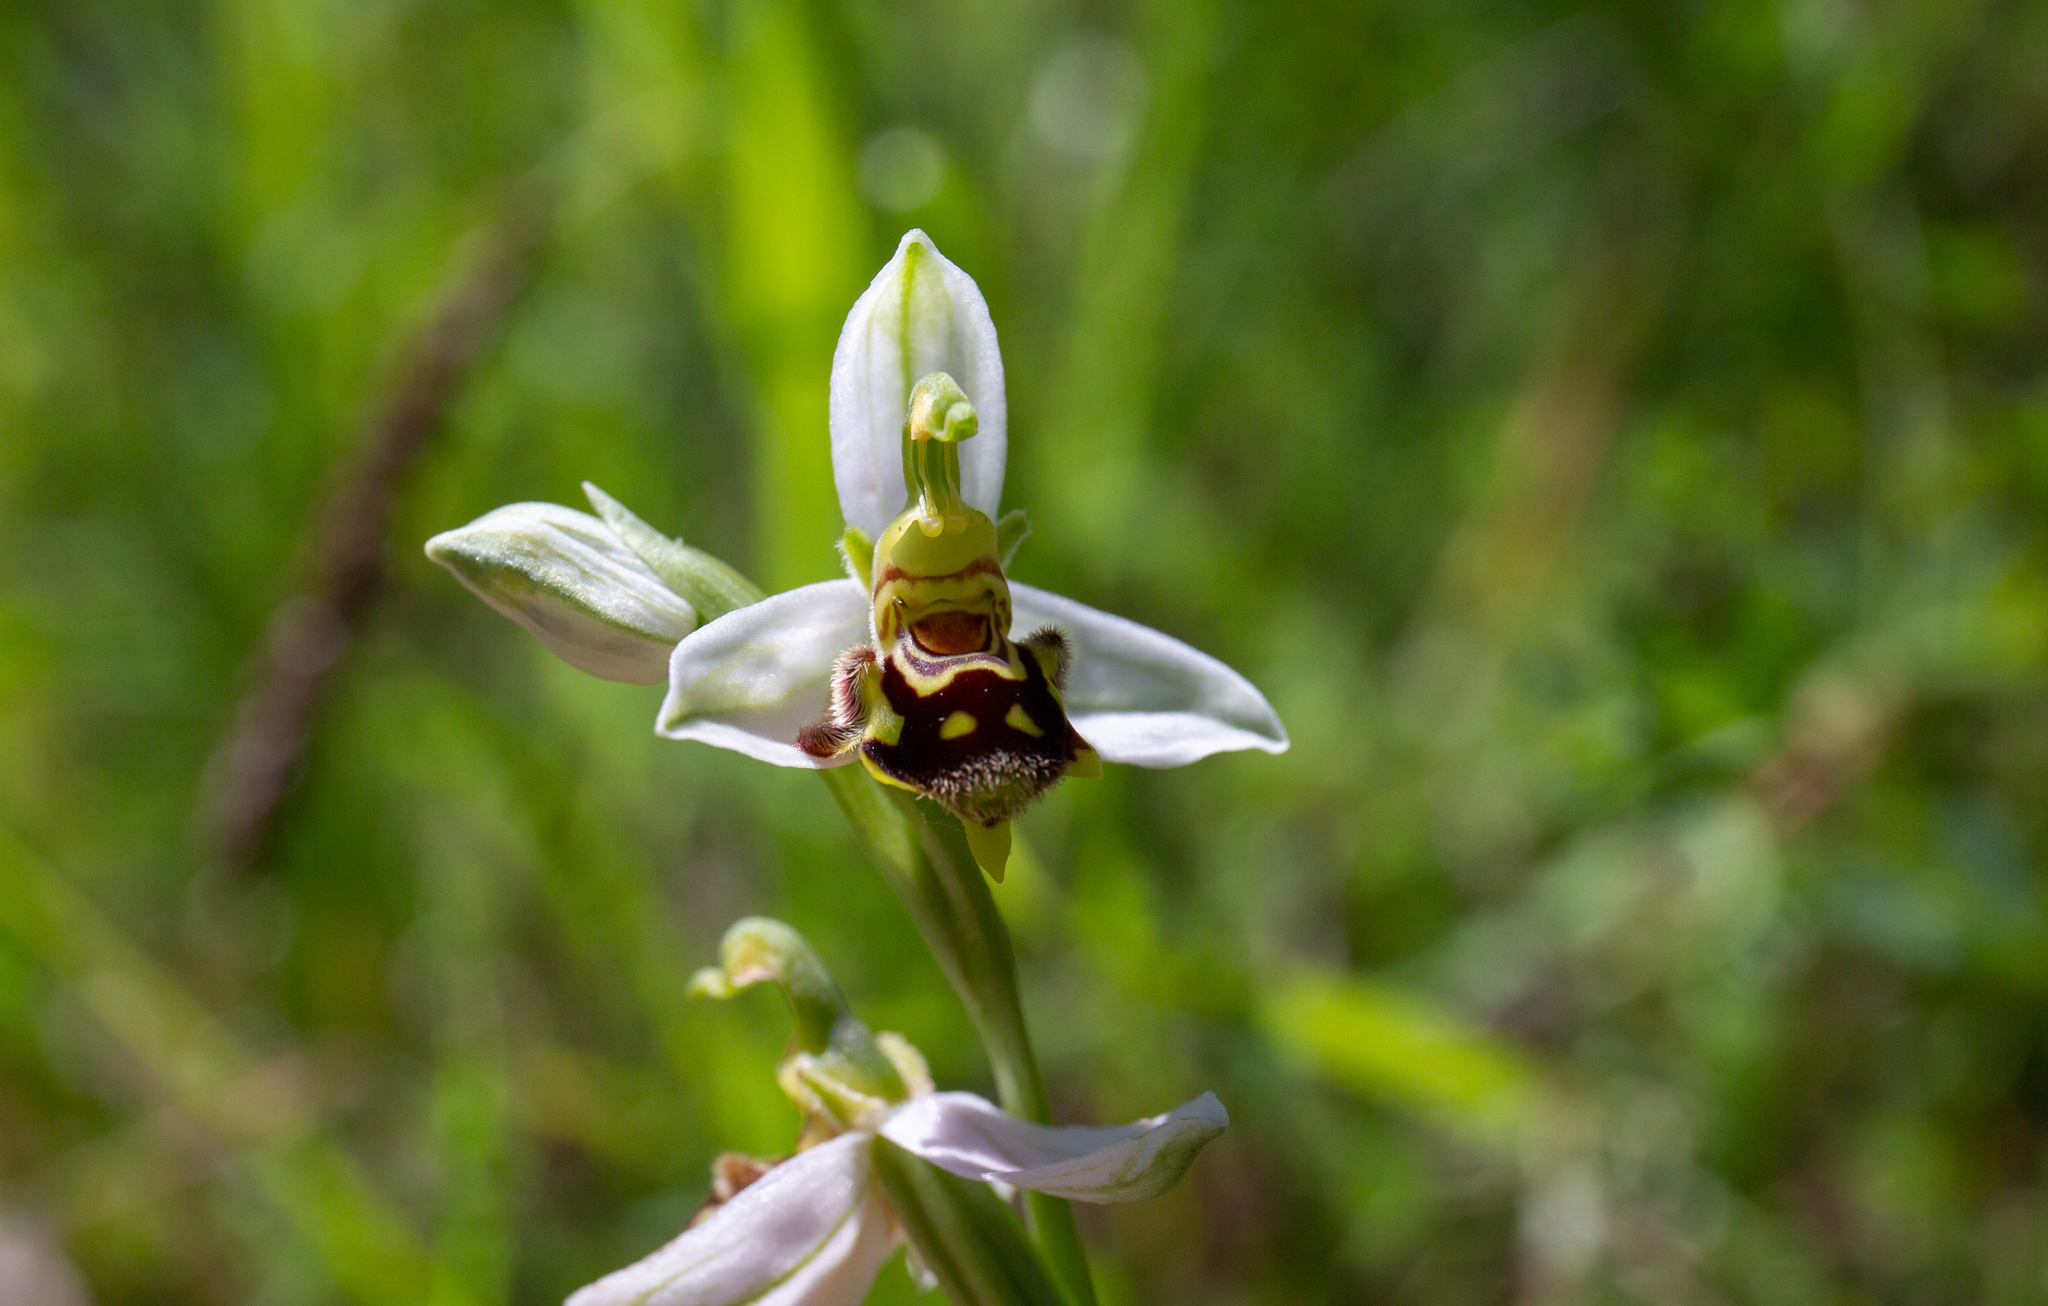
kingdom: Plantae
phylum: Tracheophyta
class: Liliopsida
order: Asparagales
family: Orchidaceae
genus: Ophrys
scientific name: Ophrys apifera
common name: Bee orchid
